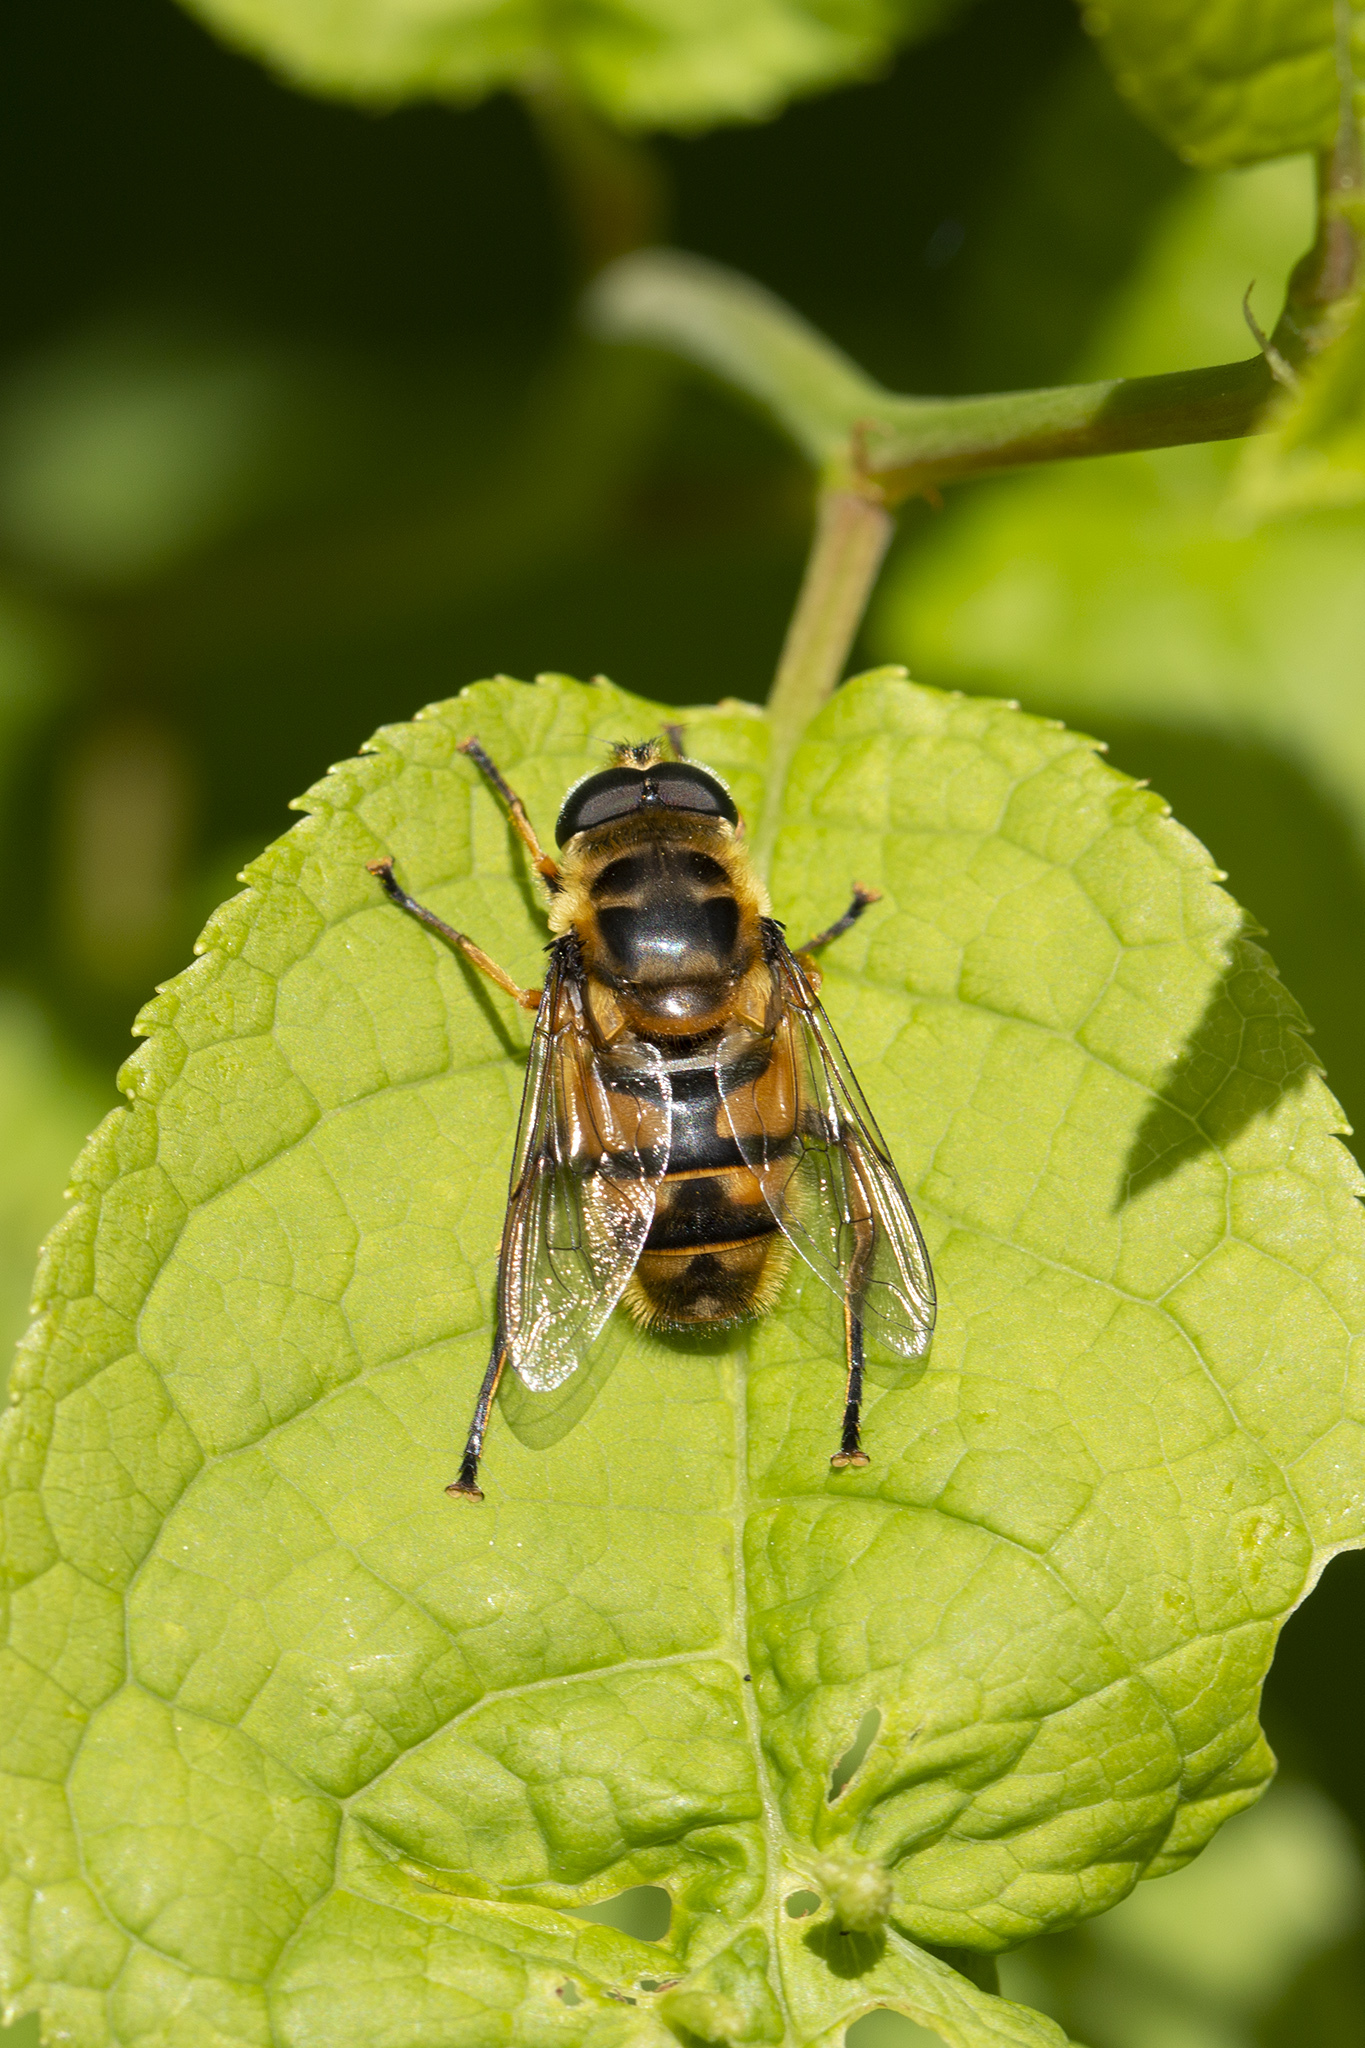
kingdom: Animalia
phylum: Arthropoda
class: Insecta
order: Diptera
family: Syrphidae
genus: Myathropa
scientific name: Myathropa florea
